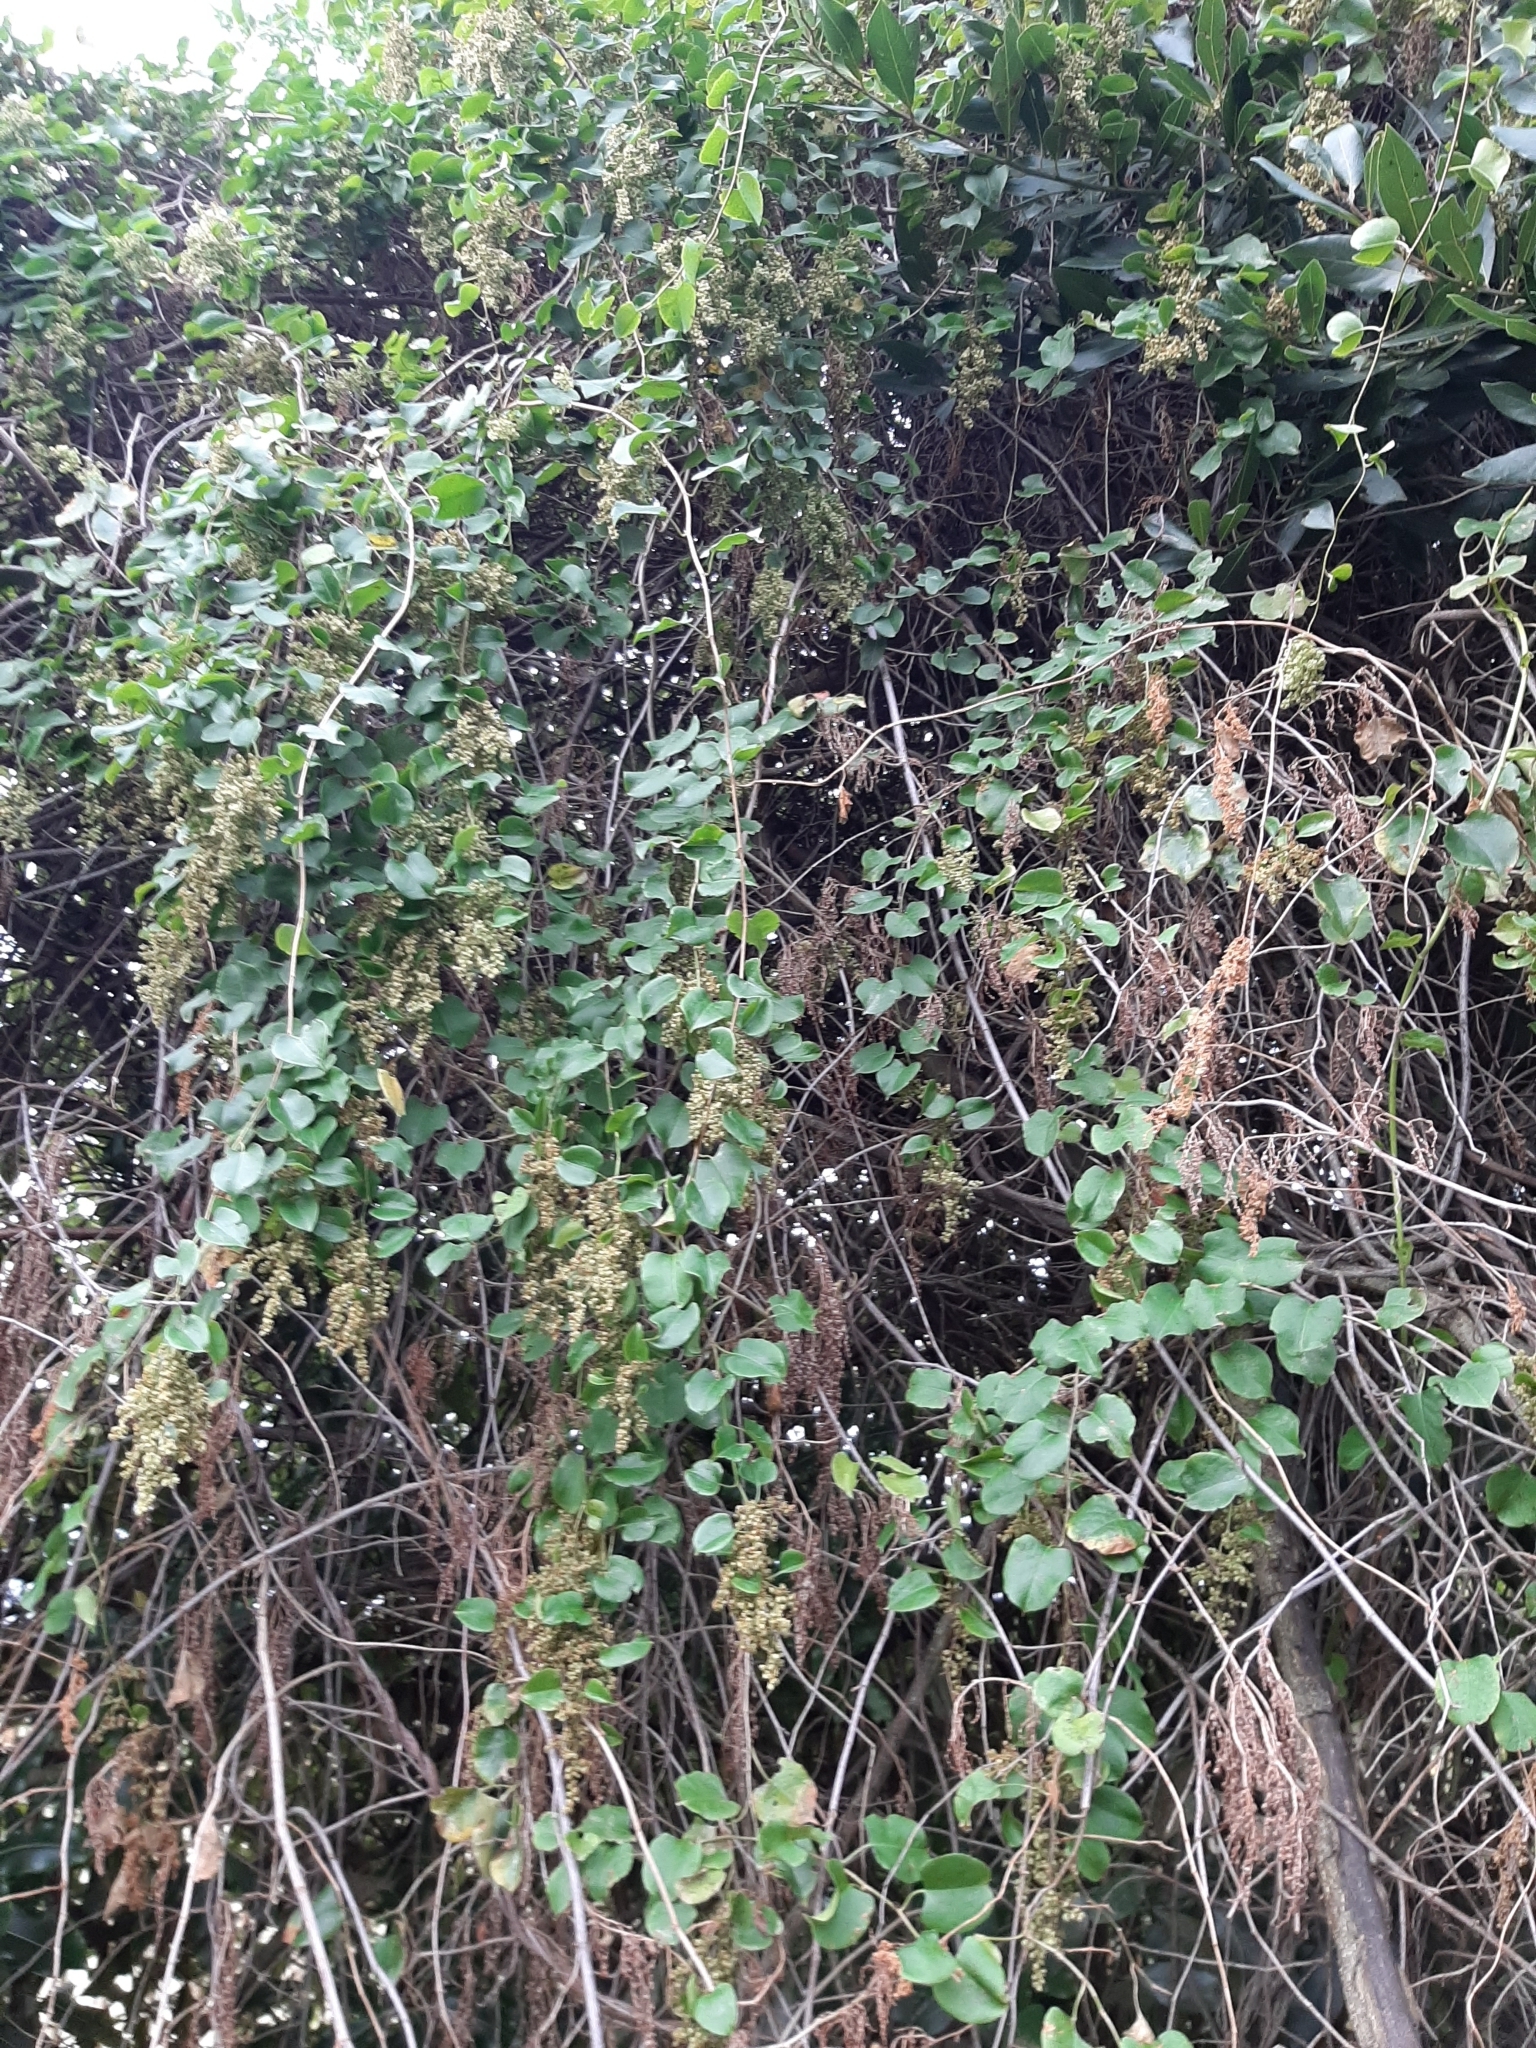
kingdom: Plantae
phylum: Tracheophyta
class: Magnoliopsida
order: Caryophyllales
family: Polygonaceae
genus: Muehlenbeckia
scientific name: Muehlenbeckia australis
